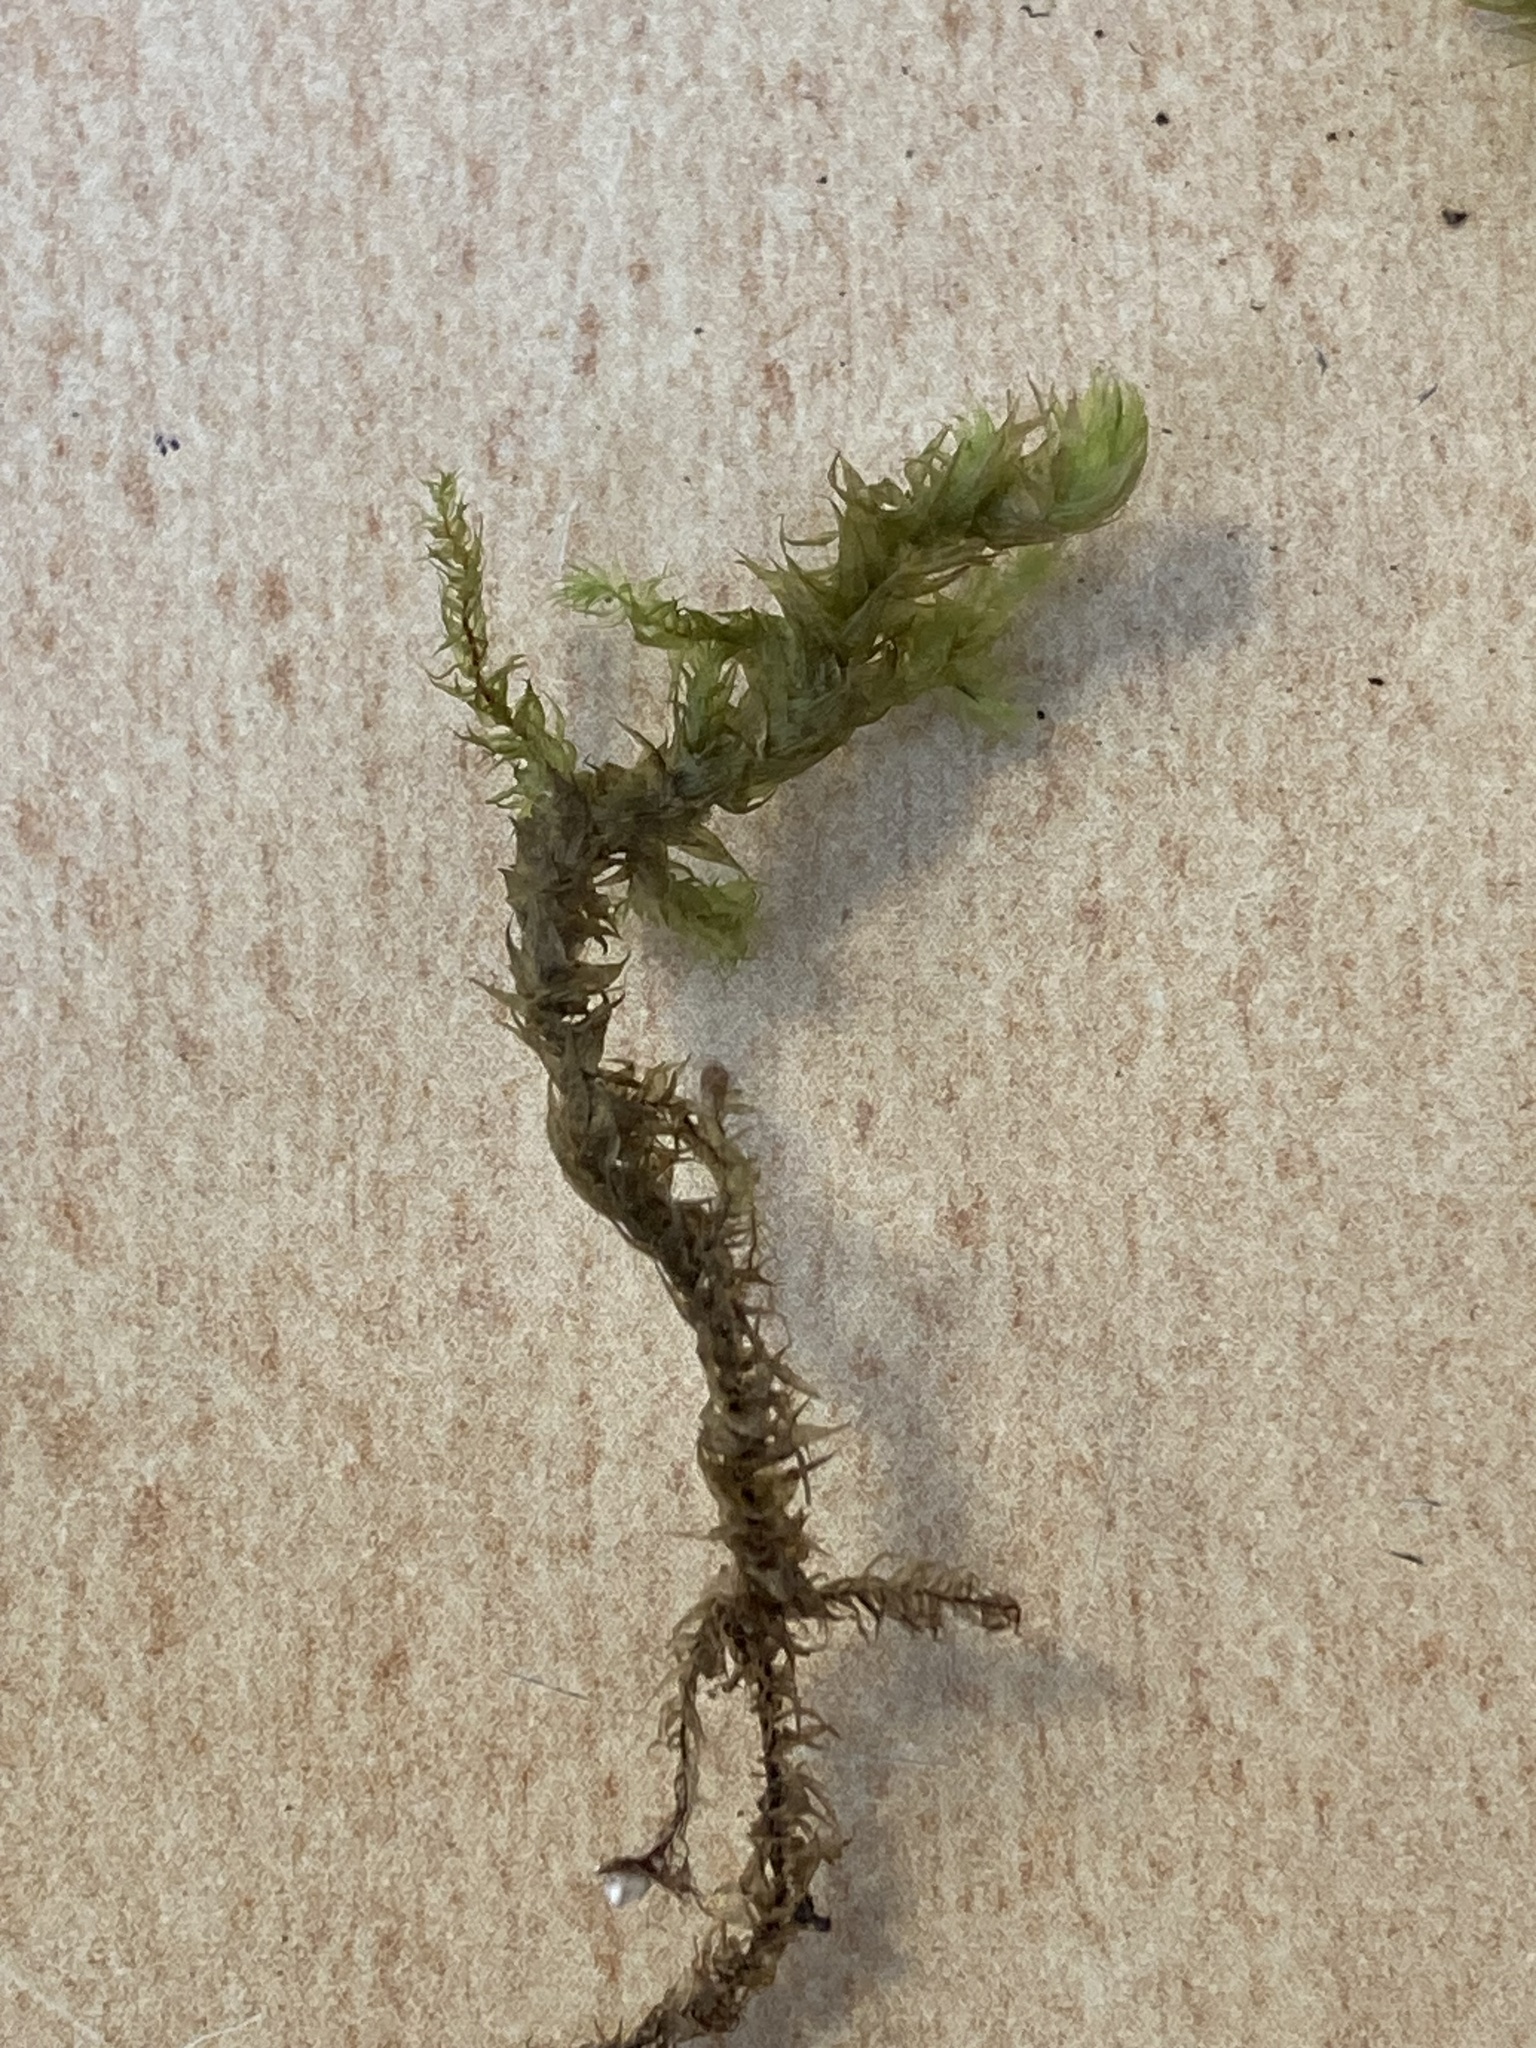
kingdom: Plantae
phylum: Bryophyta
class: Bryopsida
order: Hypnales
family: Hylocomiaceae
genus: Hylocomiadelphus
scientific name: Hylocomiadelphus triquetrus
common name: Rough goose neck moss
